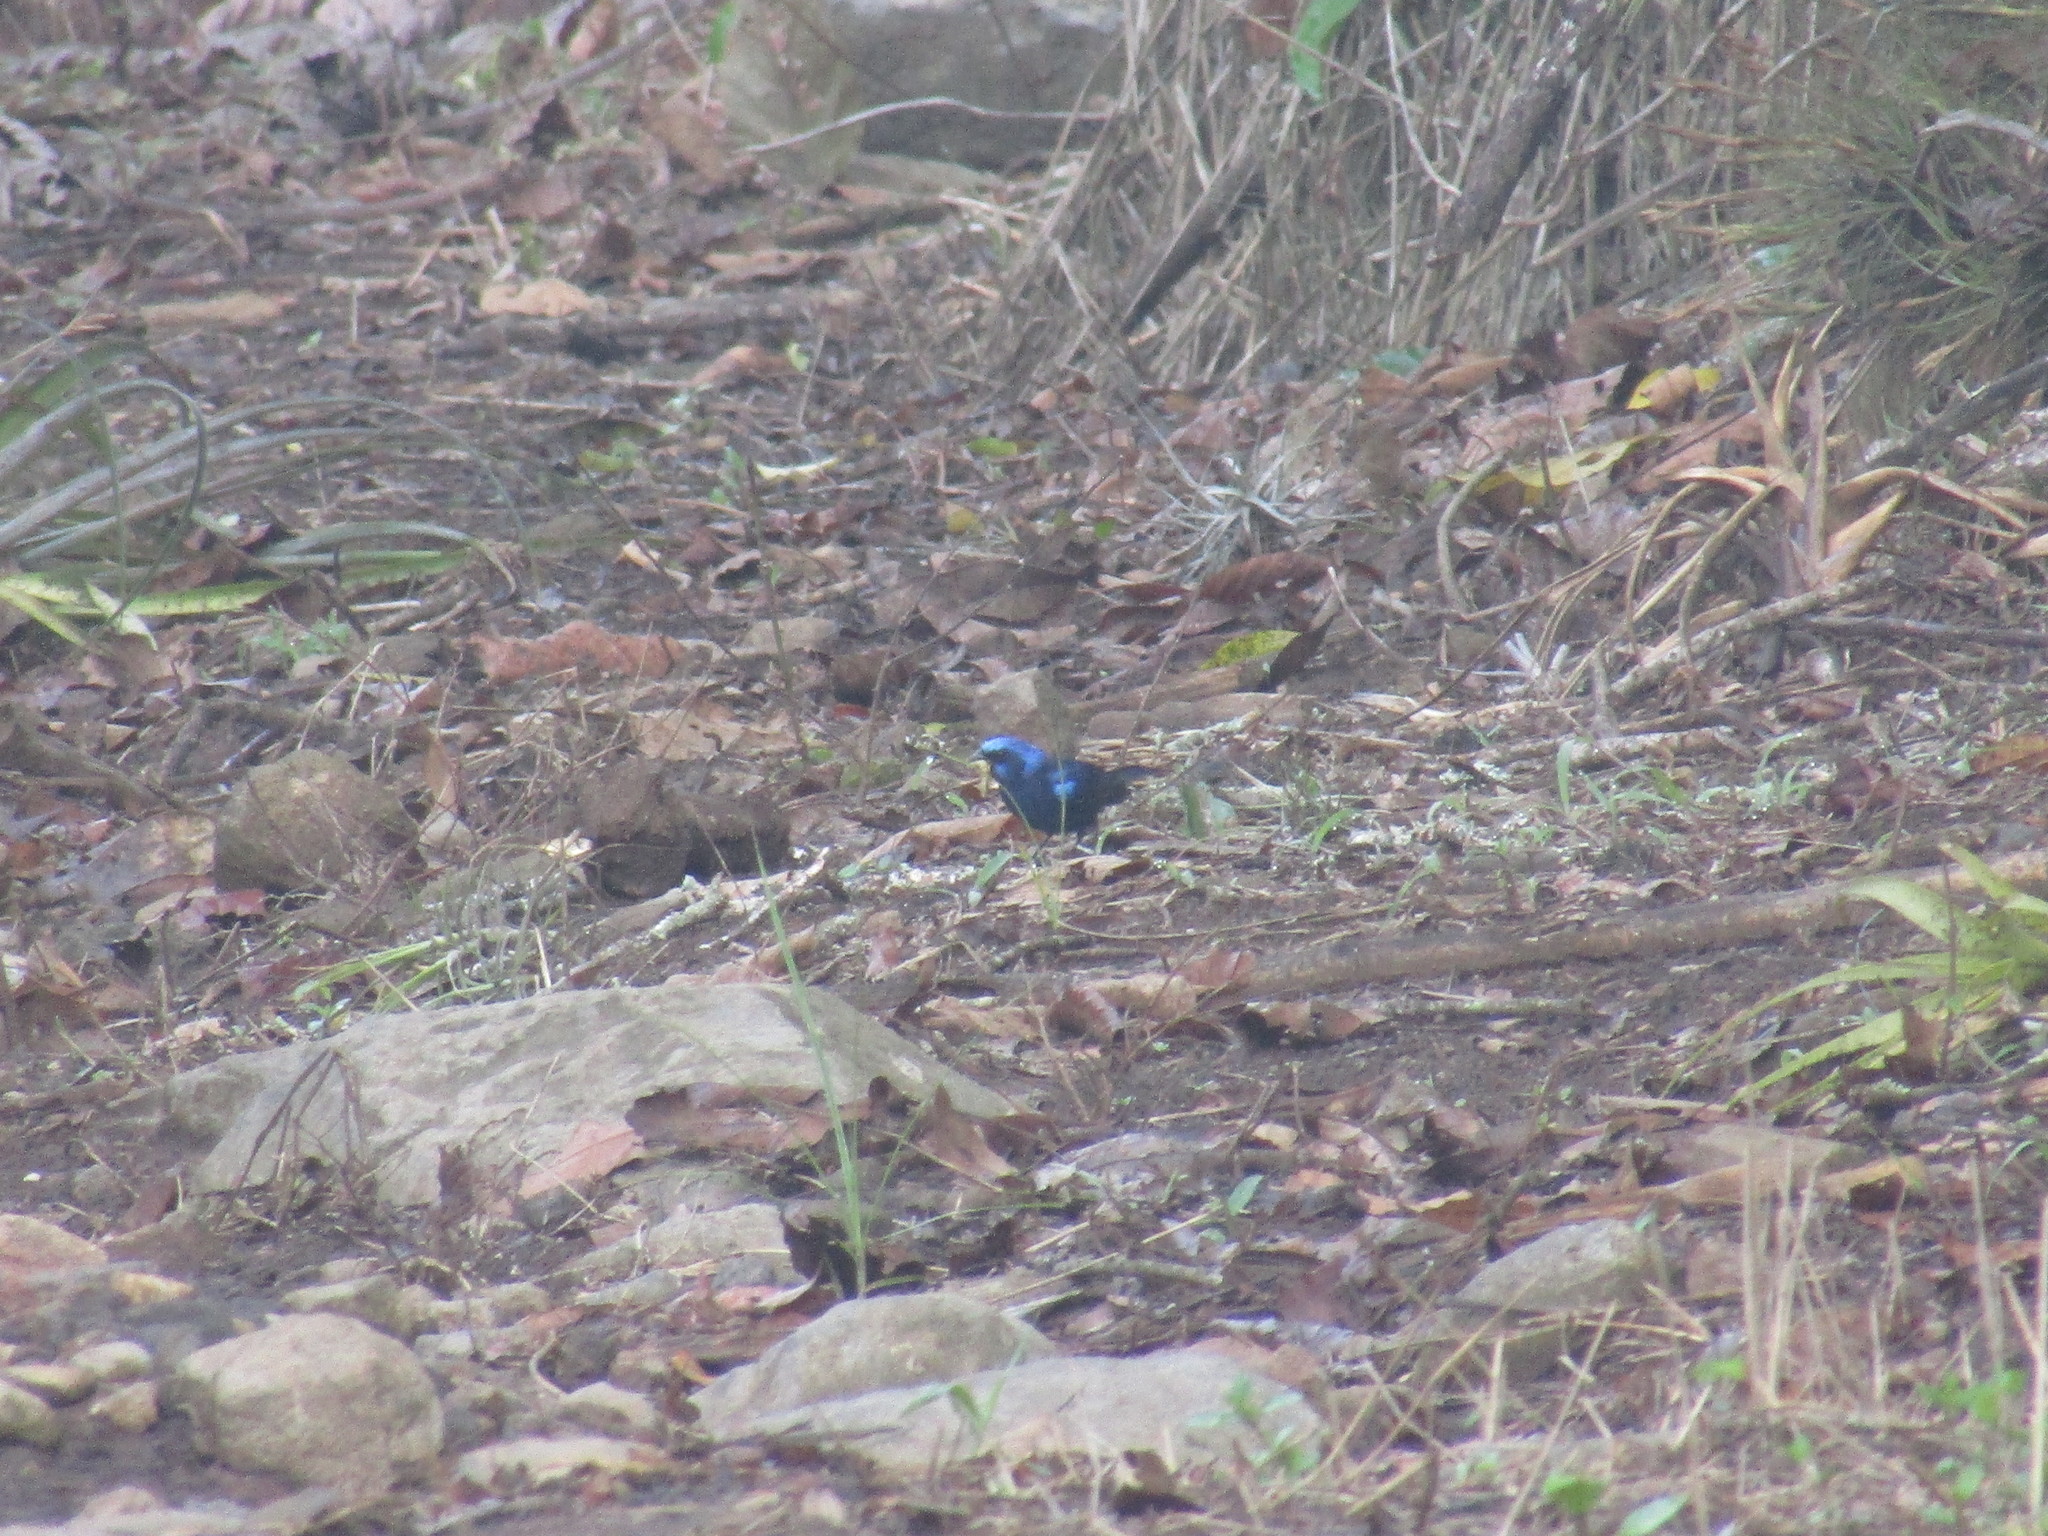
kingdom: Animalia
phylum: Chordata
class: Aves
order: Passeriformes
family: Cardinalidae
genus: Cyanocompsa
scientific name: Cyanocompsa parellina
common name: Blue bunting
